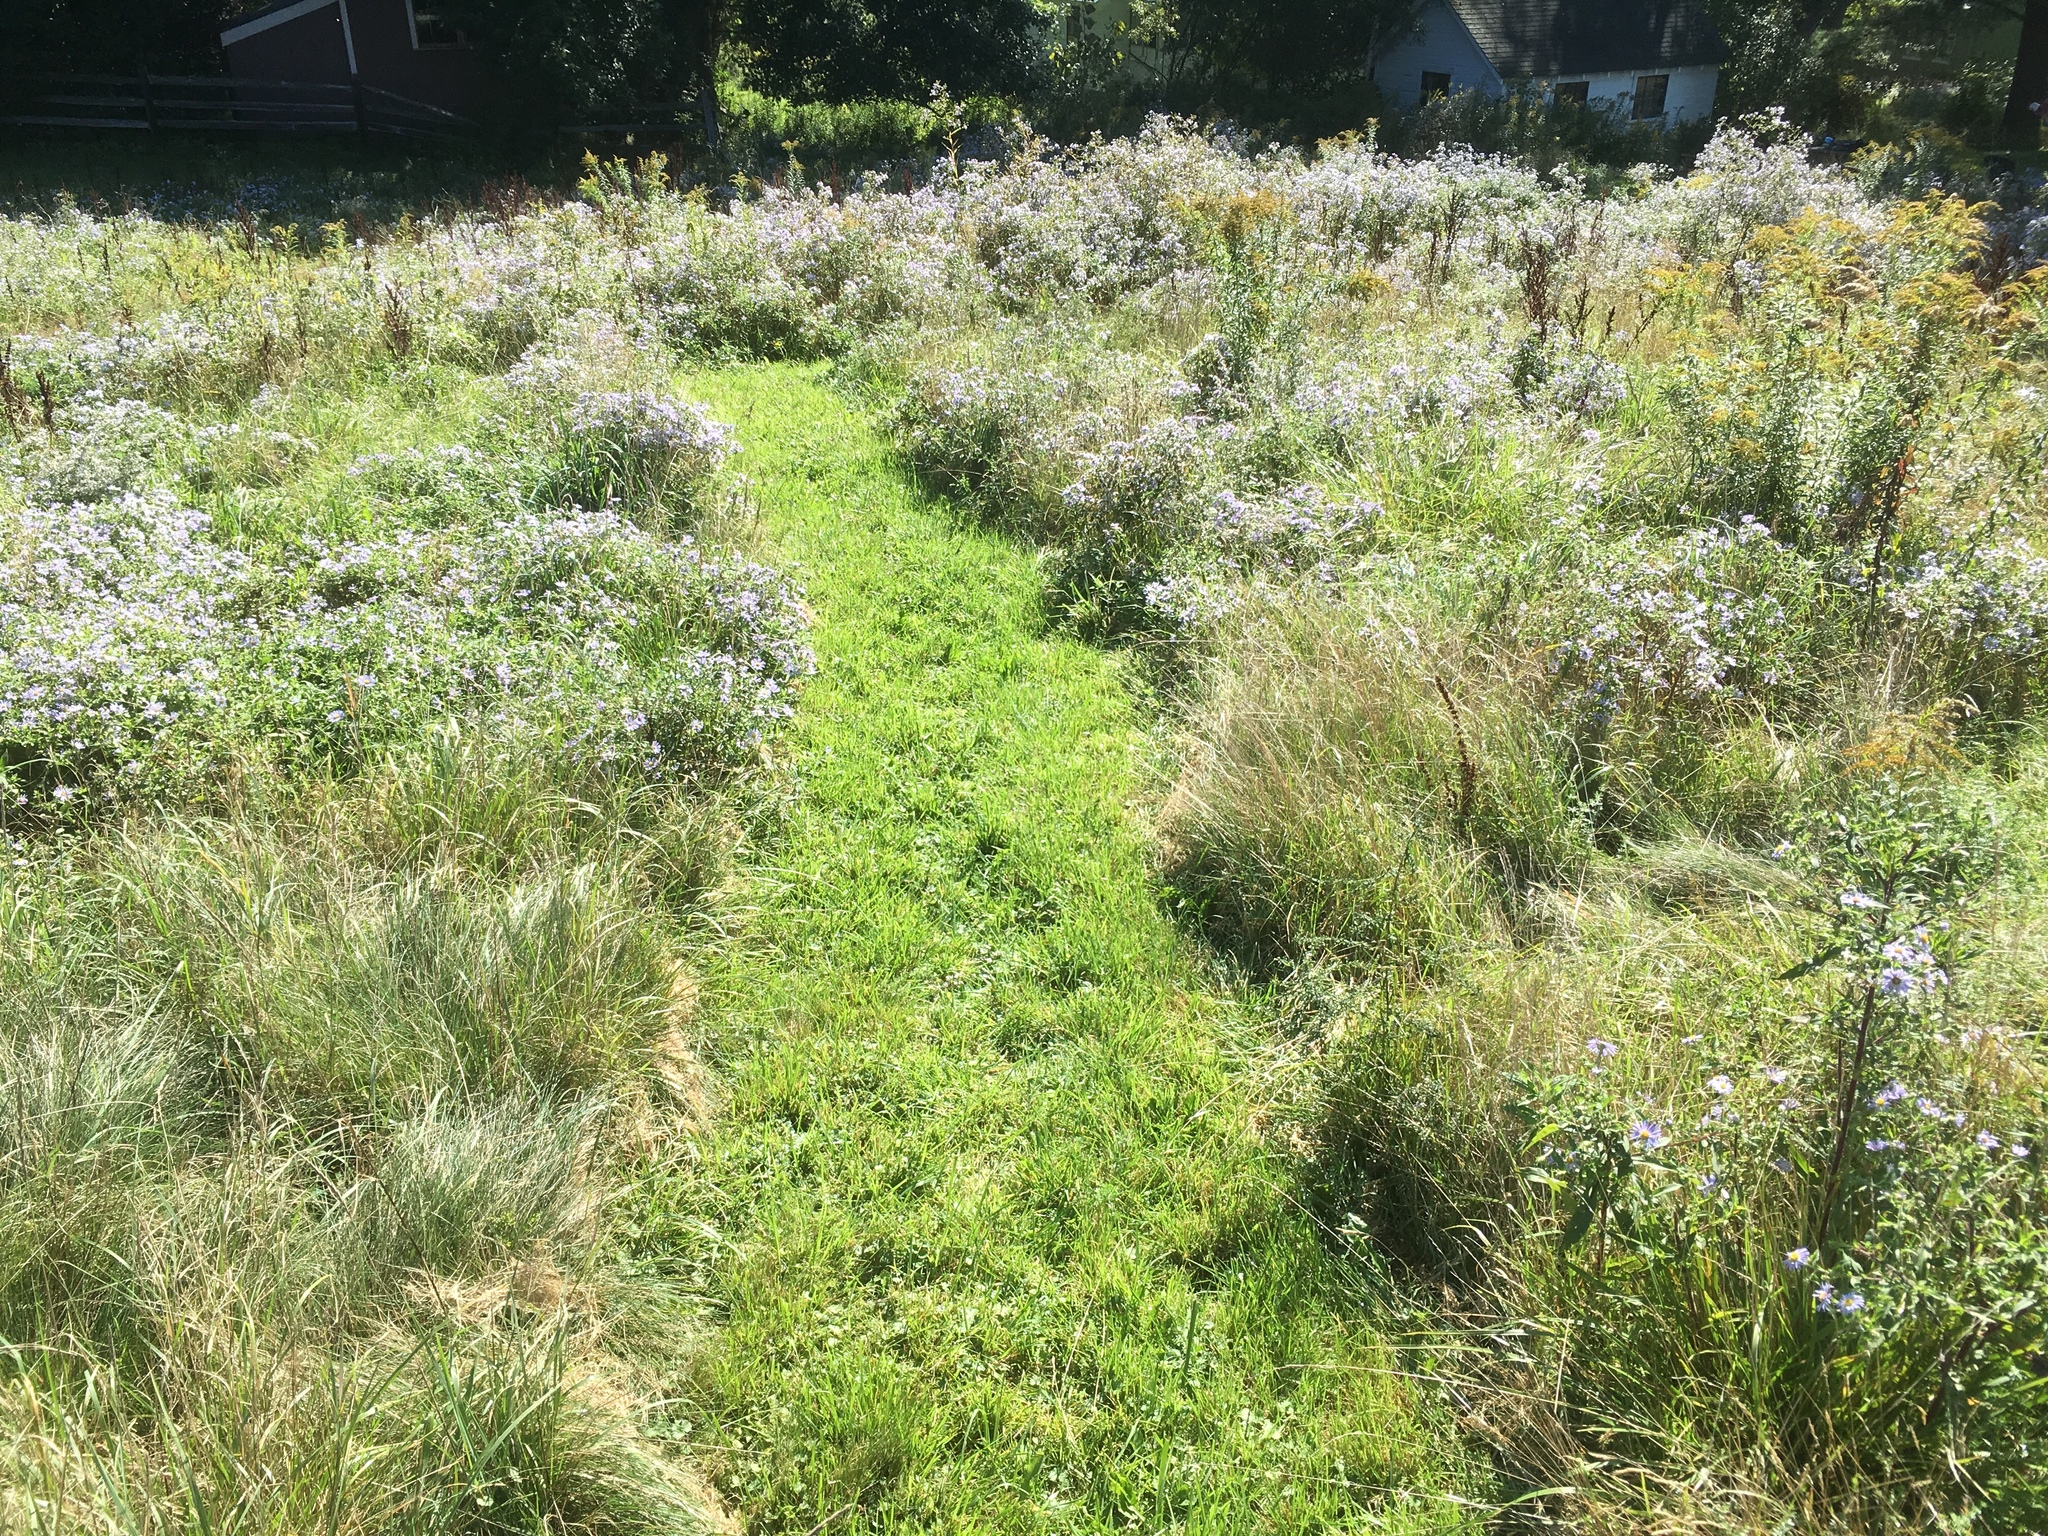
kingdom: Plantae
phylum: Tracheophyta
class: Magnoliopsida
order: Asterales
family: Asteraceae
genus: Symphyotrichum
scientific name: Symphyotrichum puniceum
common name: Bog aster
